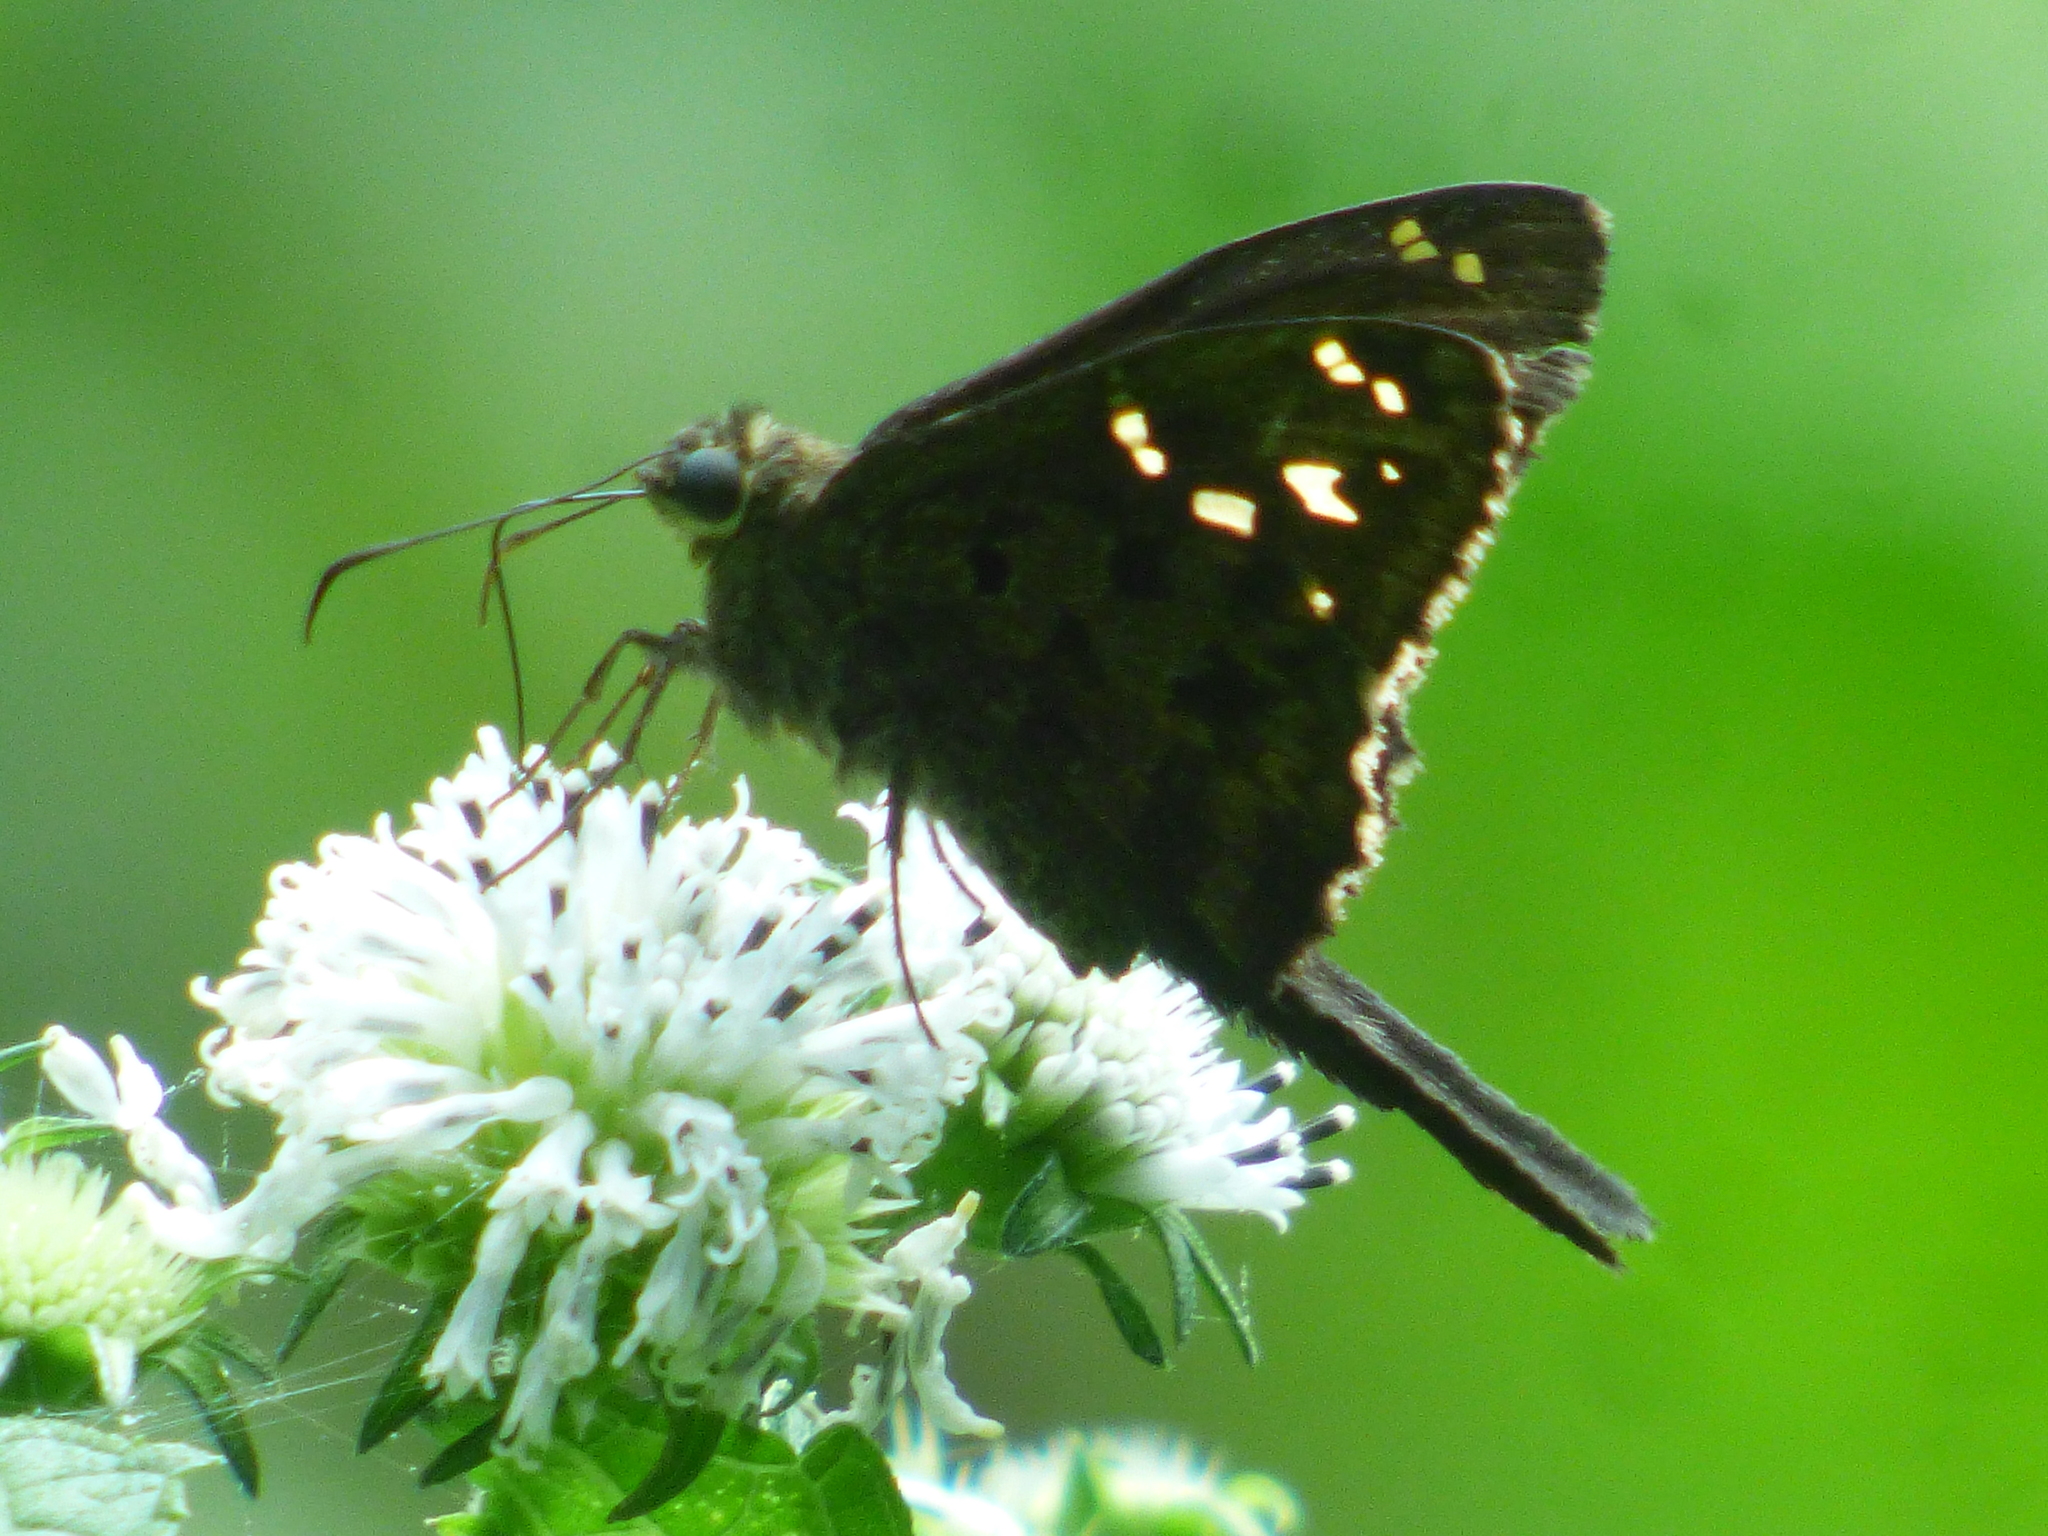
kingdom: Animalia
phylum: Arthropoda
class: Insecta
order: Lepidoptera
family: Hesperiidae
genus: Thorybes
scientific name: Thorybes
